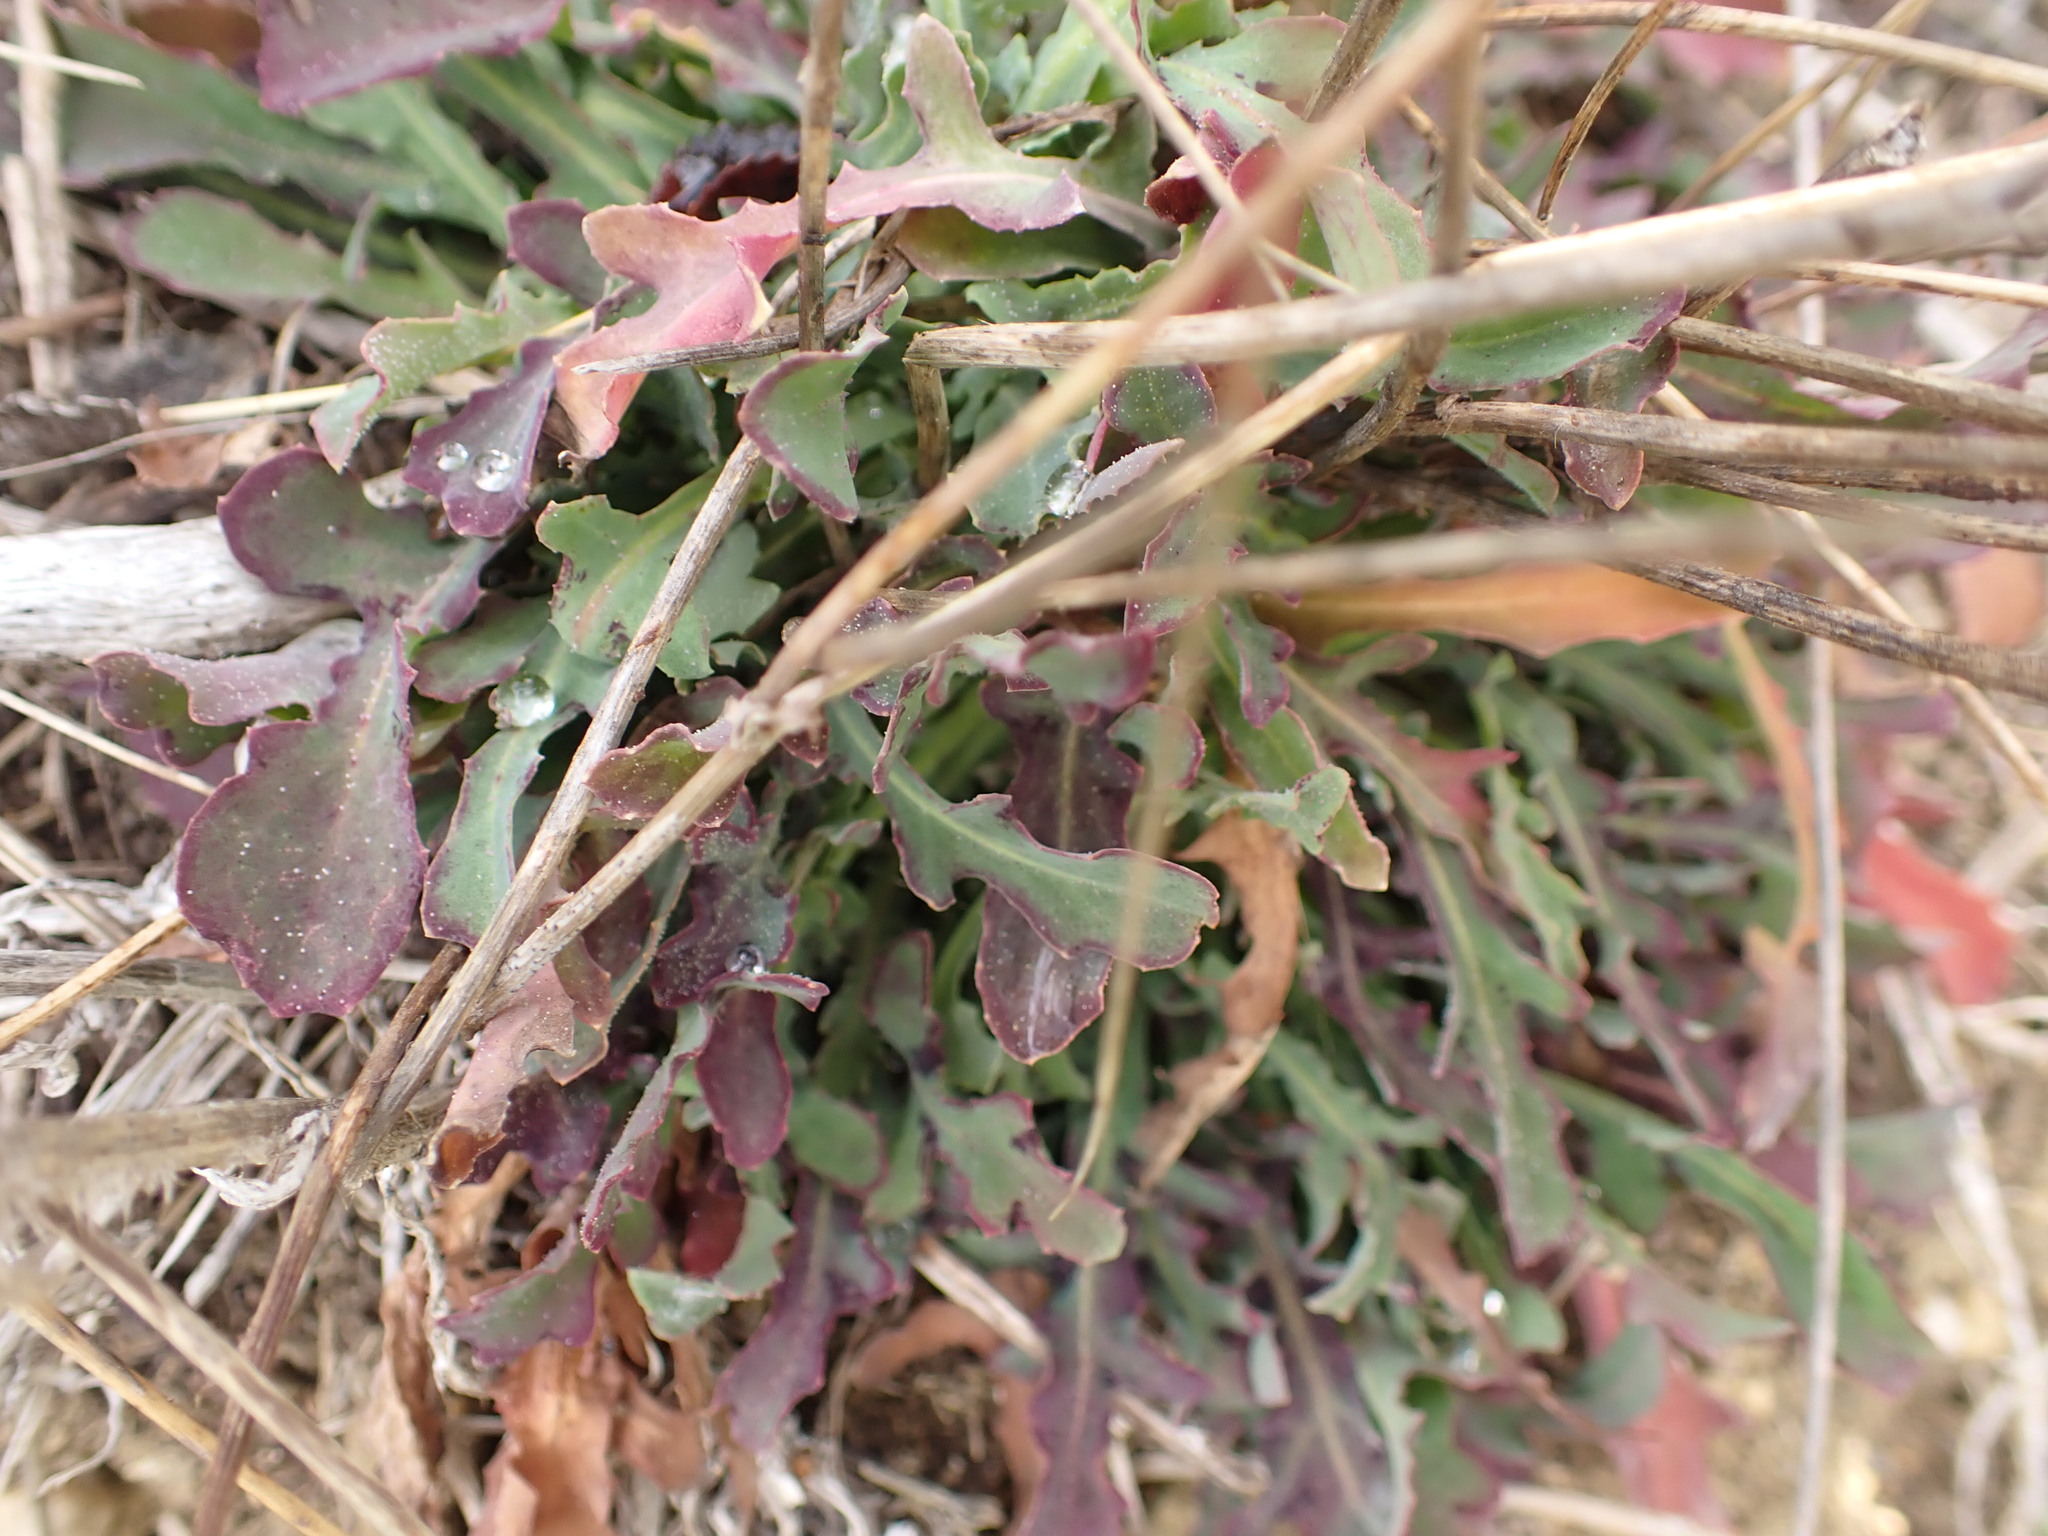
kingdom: Plantae
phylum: Tracheophyta
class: Magnoliopsida
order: Asterales
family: Asteraceae
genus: Reichardia
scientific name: Reichardia picroides
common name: Common brighteyes
